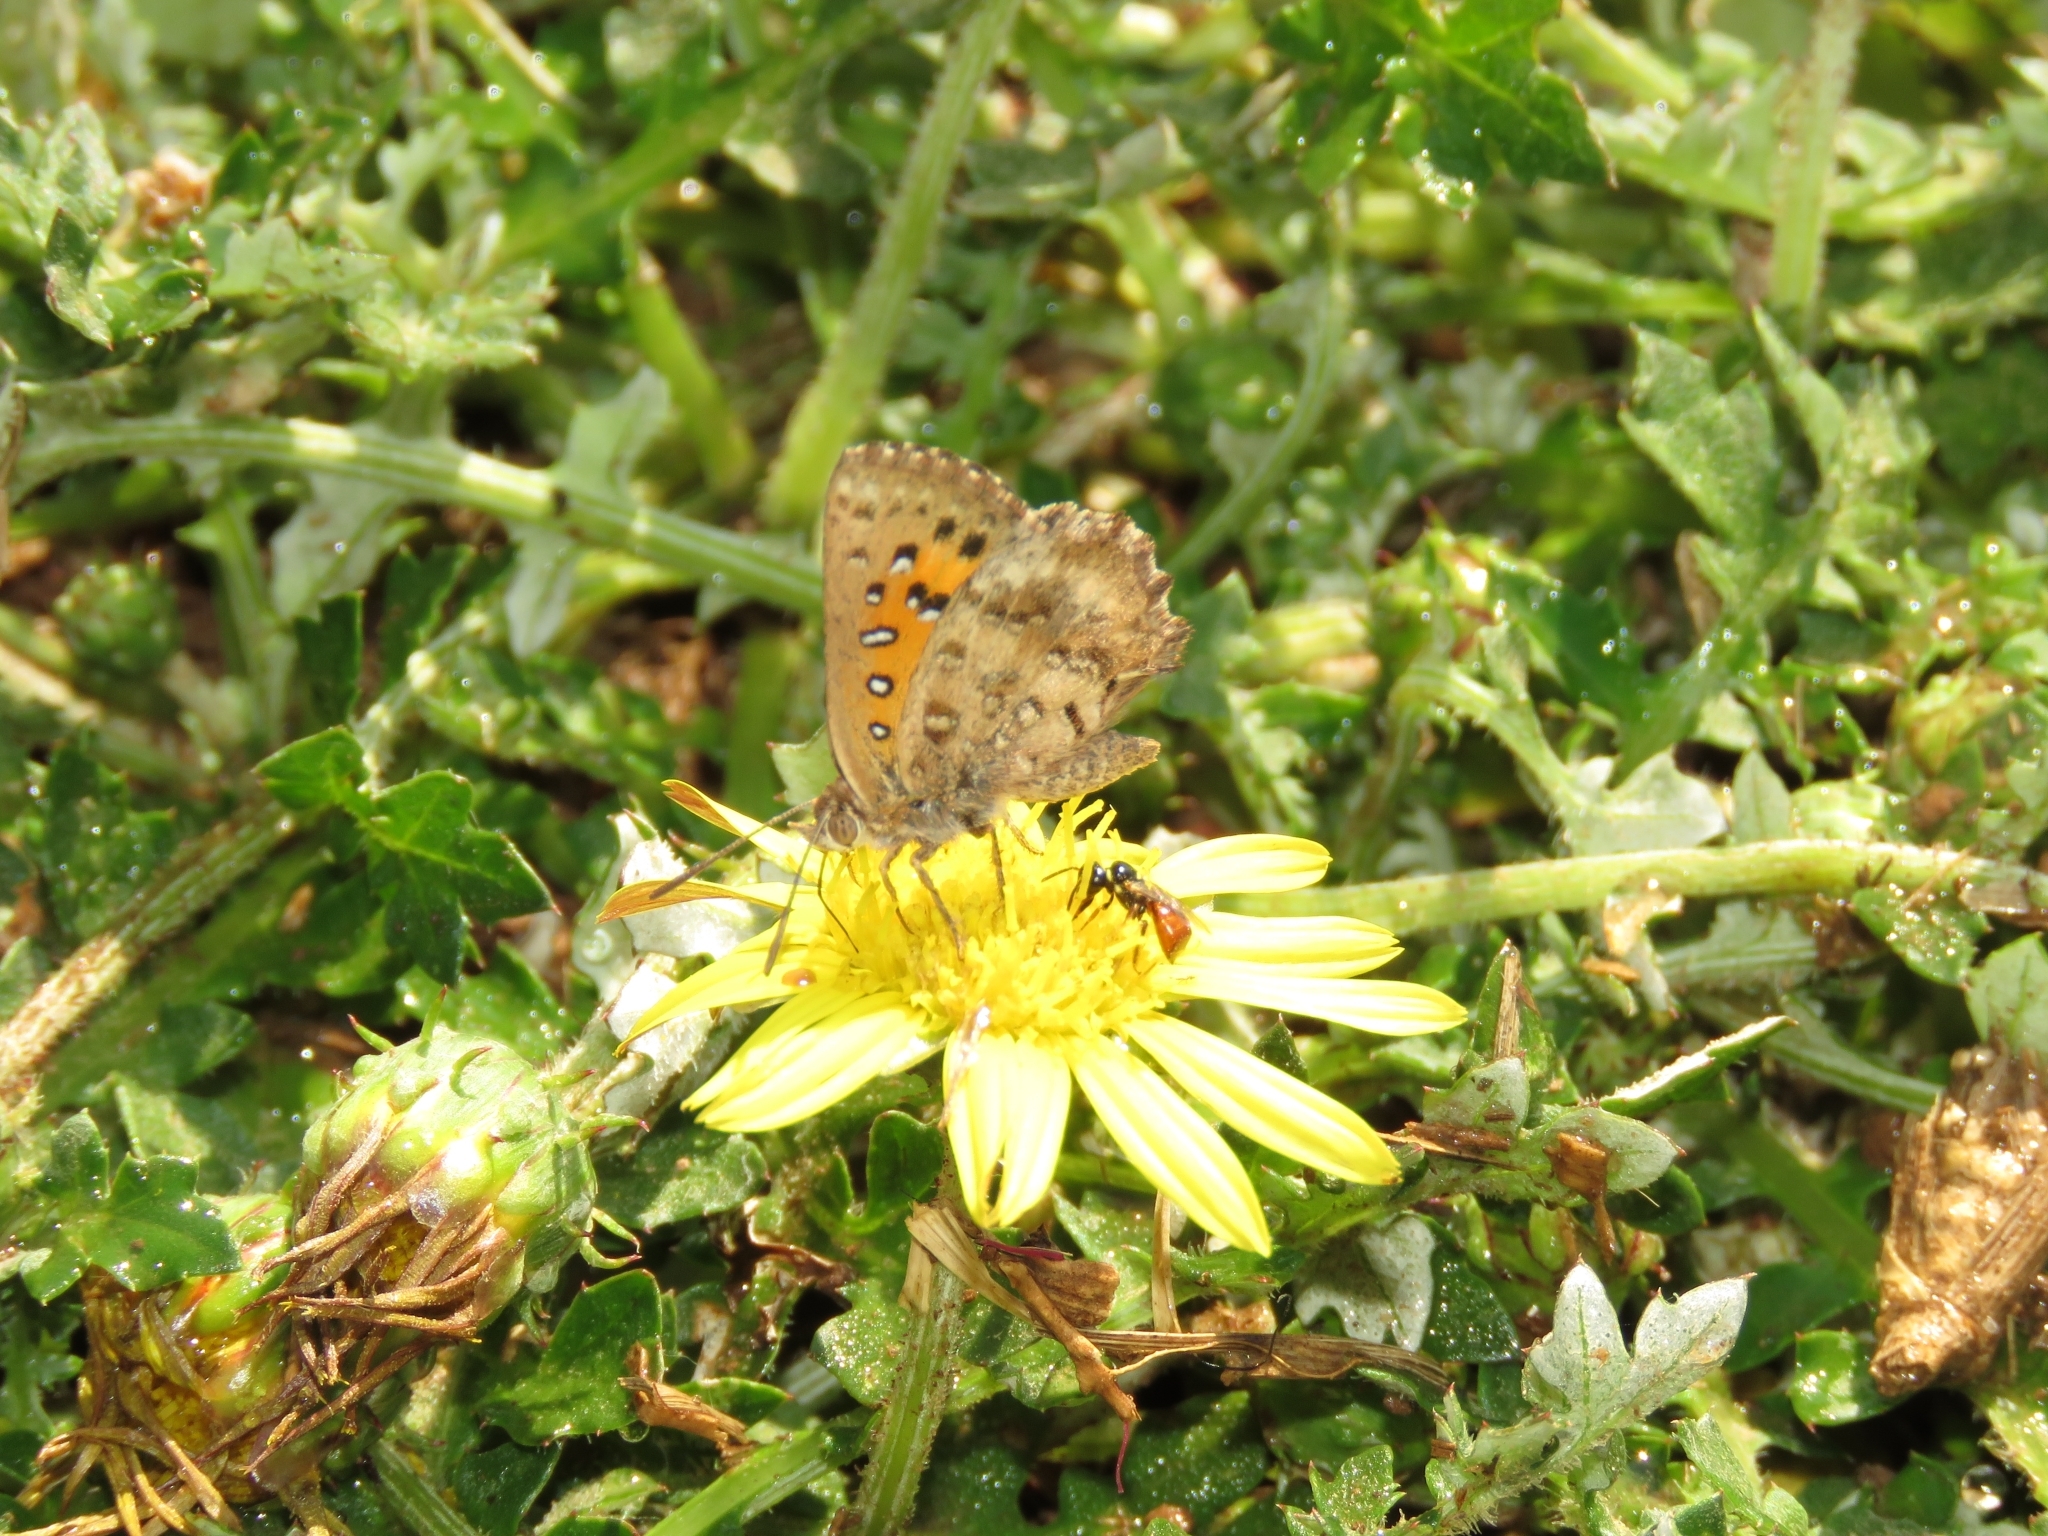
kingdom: Animalia
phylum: Arthropoda
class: Insecta
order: Lepidoptera
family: Lycaenidae
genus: Aloeides
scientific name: Aloeides pierus
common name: Dull copper
